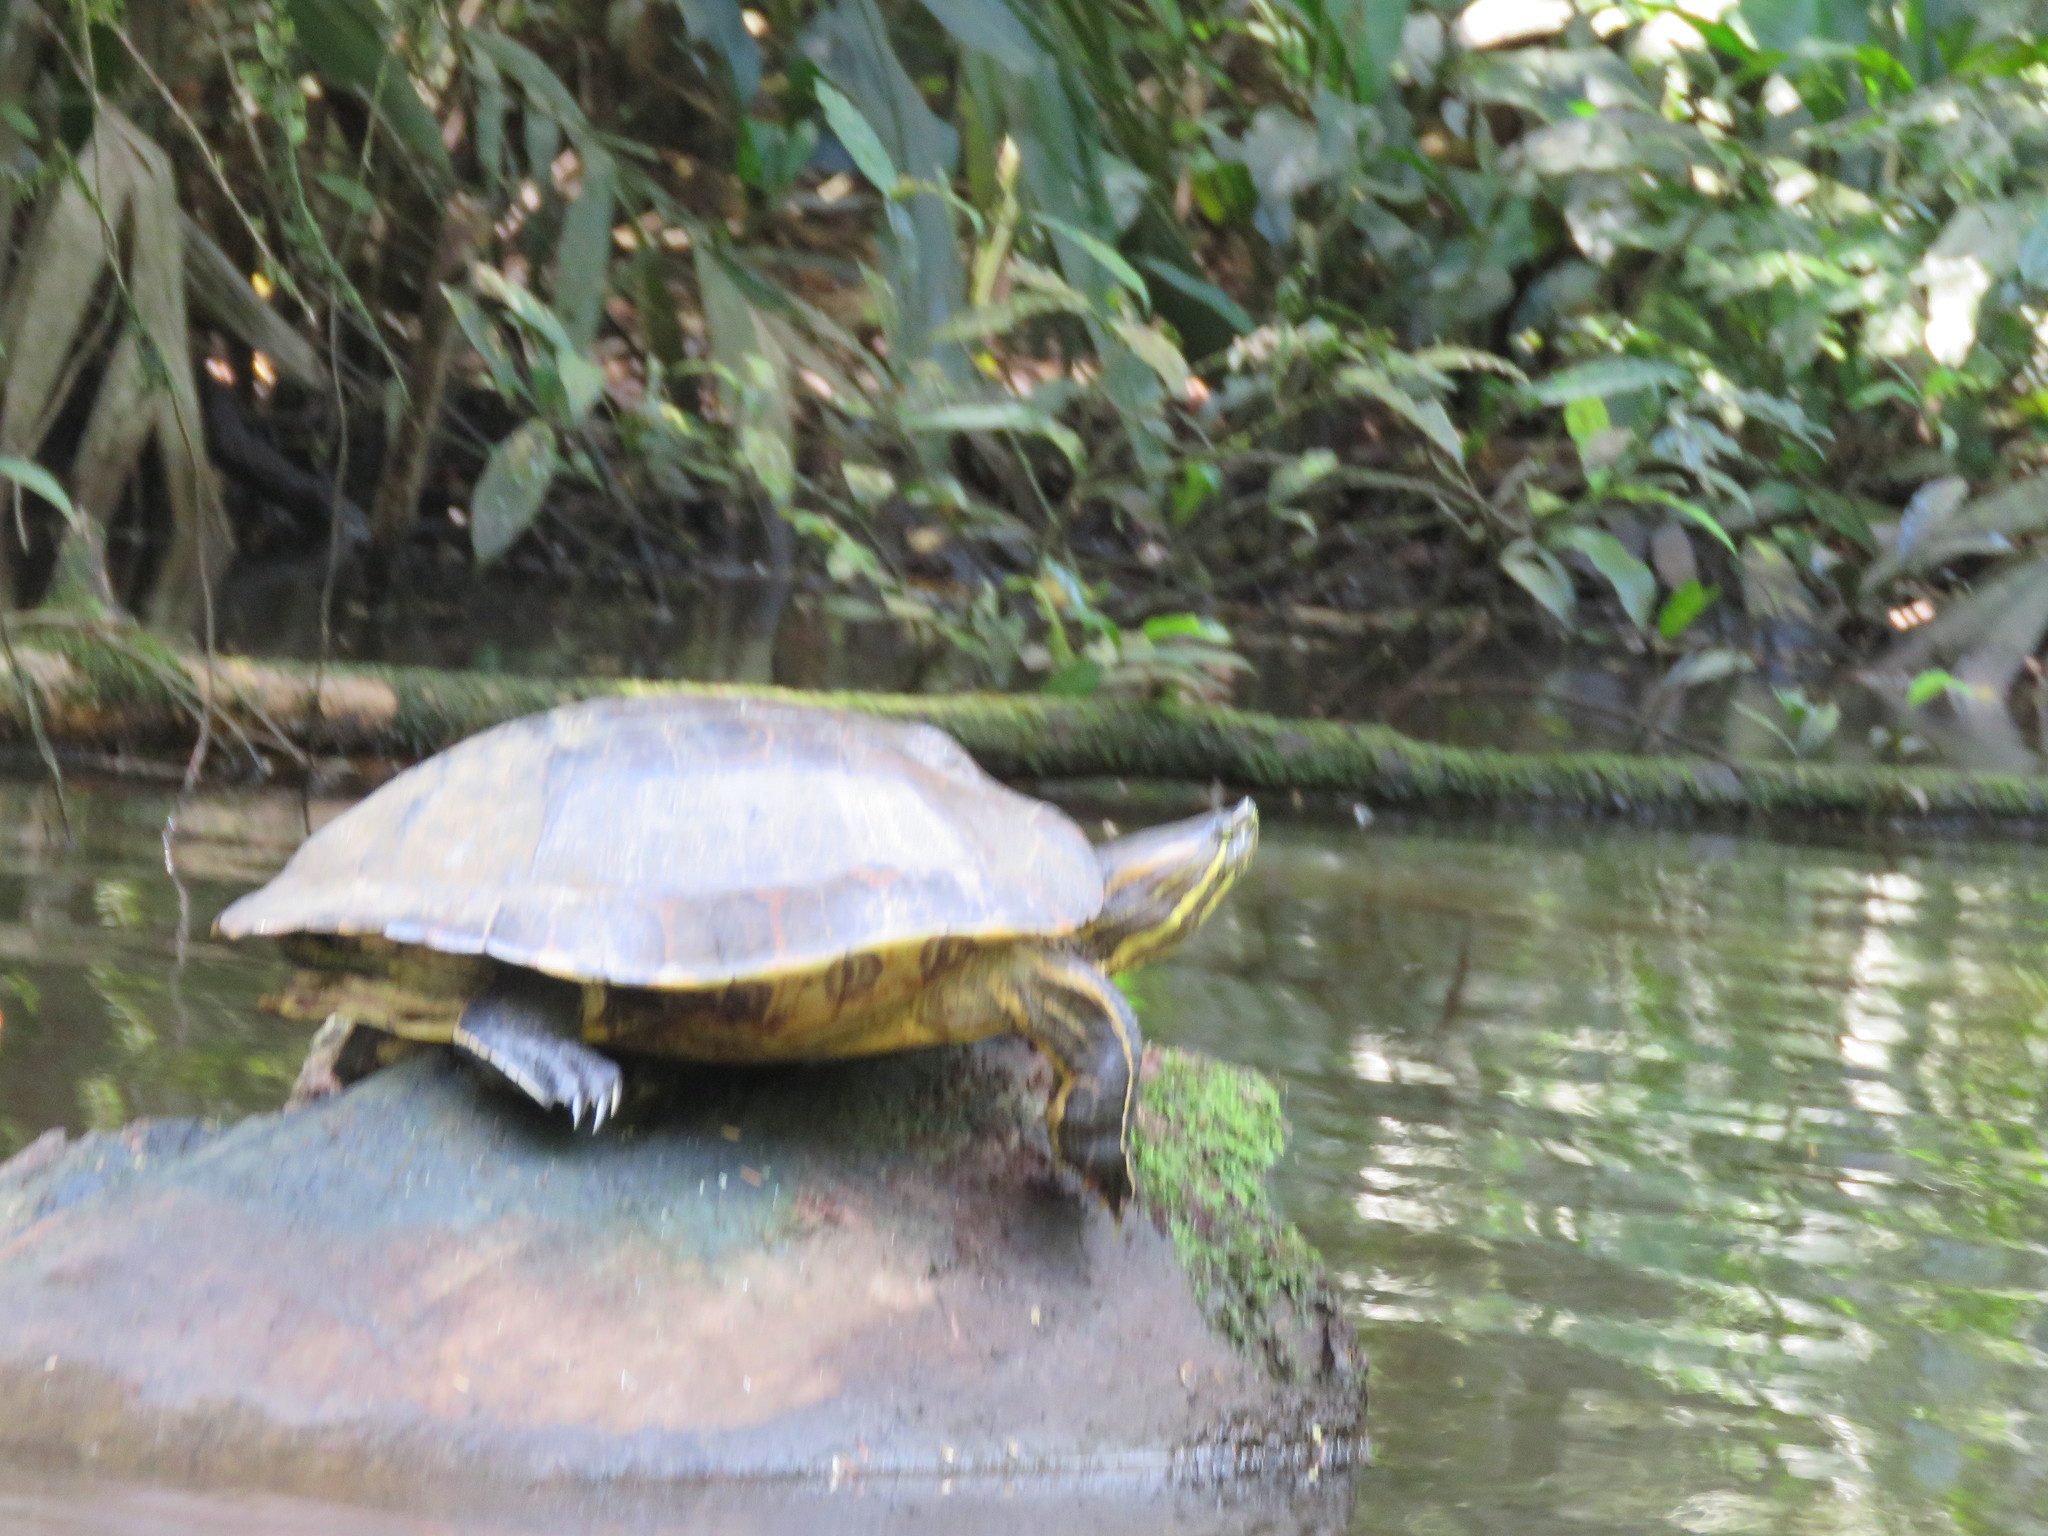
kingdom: Animalia
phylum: Chordata
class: Testudines
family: Emydidae
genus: Trachemys
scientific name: Trachemys venusta
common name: Mesoamerican slider
